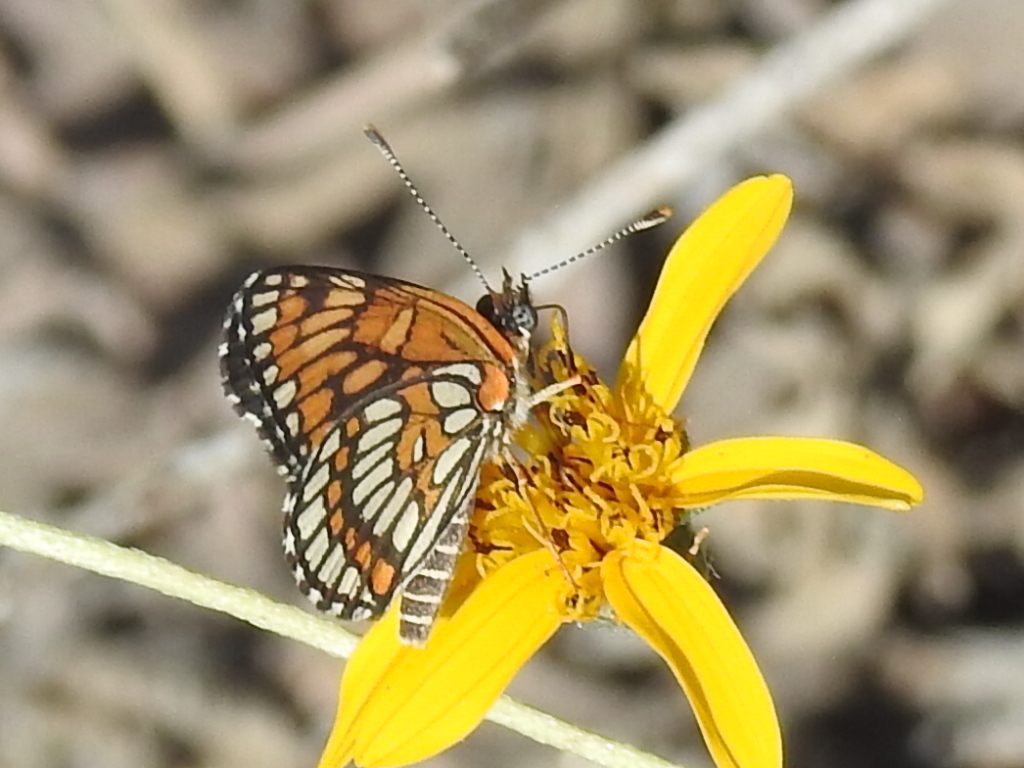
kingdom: Animalia
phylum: Arthropoda
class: Insecta
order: Lepidoptera
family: Nymphalidae
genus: Thessalia
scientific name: Thessalia theona
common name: Nymphalid moth
